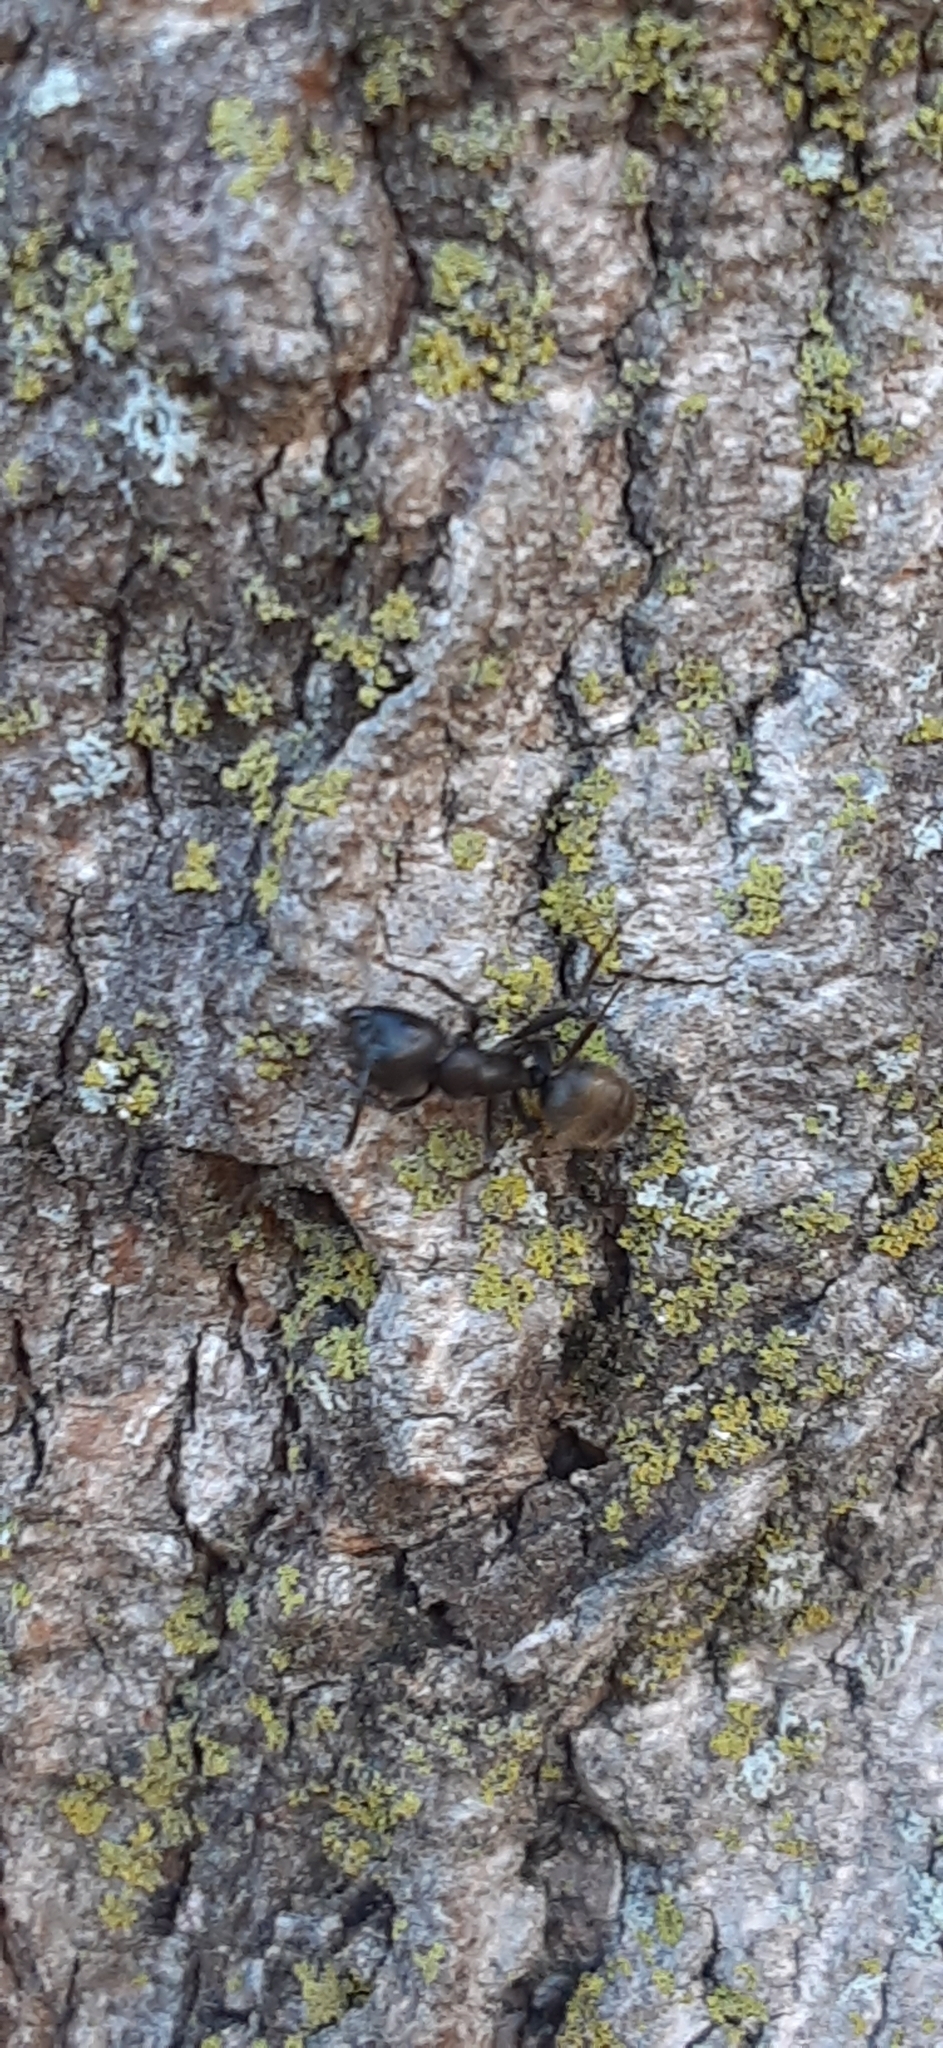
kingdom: Animalia
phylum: Arthropoda
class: Insecta
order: Hymenoptera
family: Formicidae
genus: Camponotus
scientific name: Camponotus pennsylvanicus
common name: Black carpenter ant
